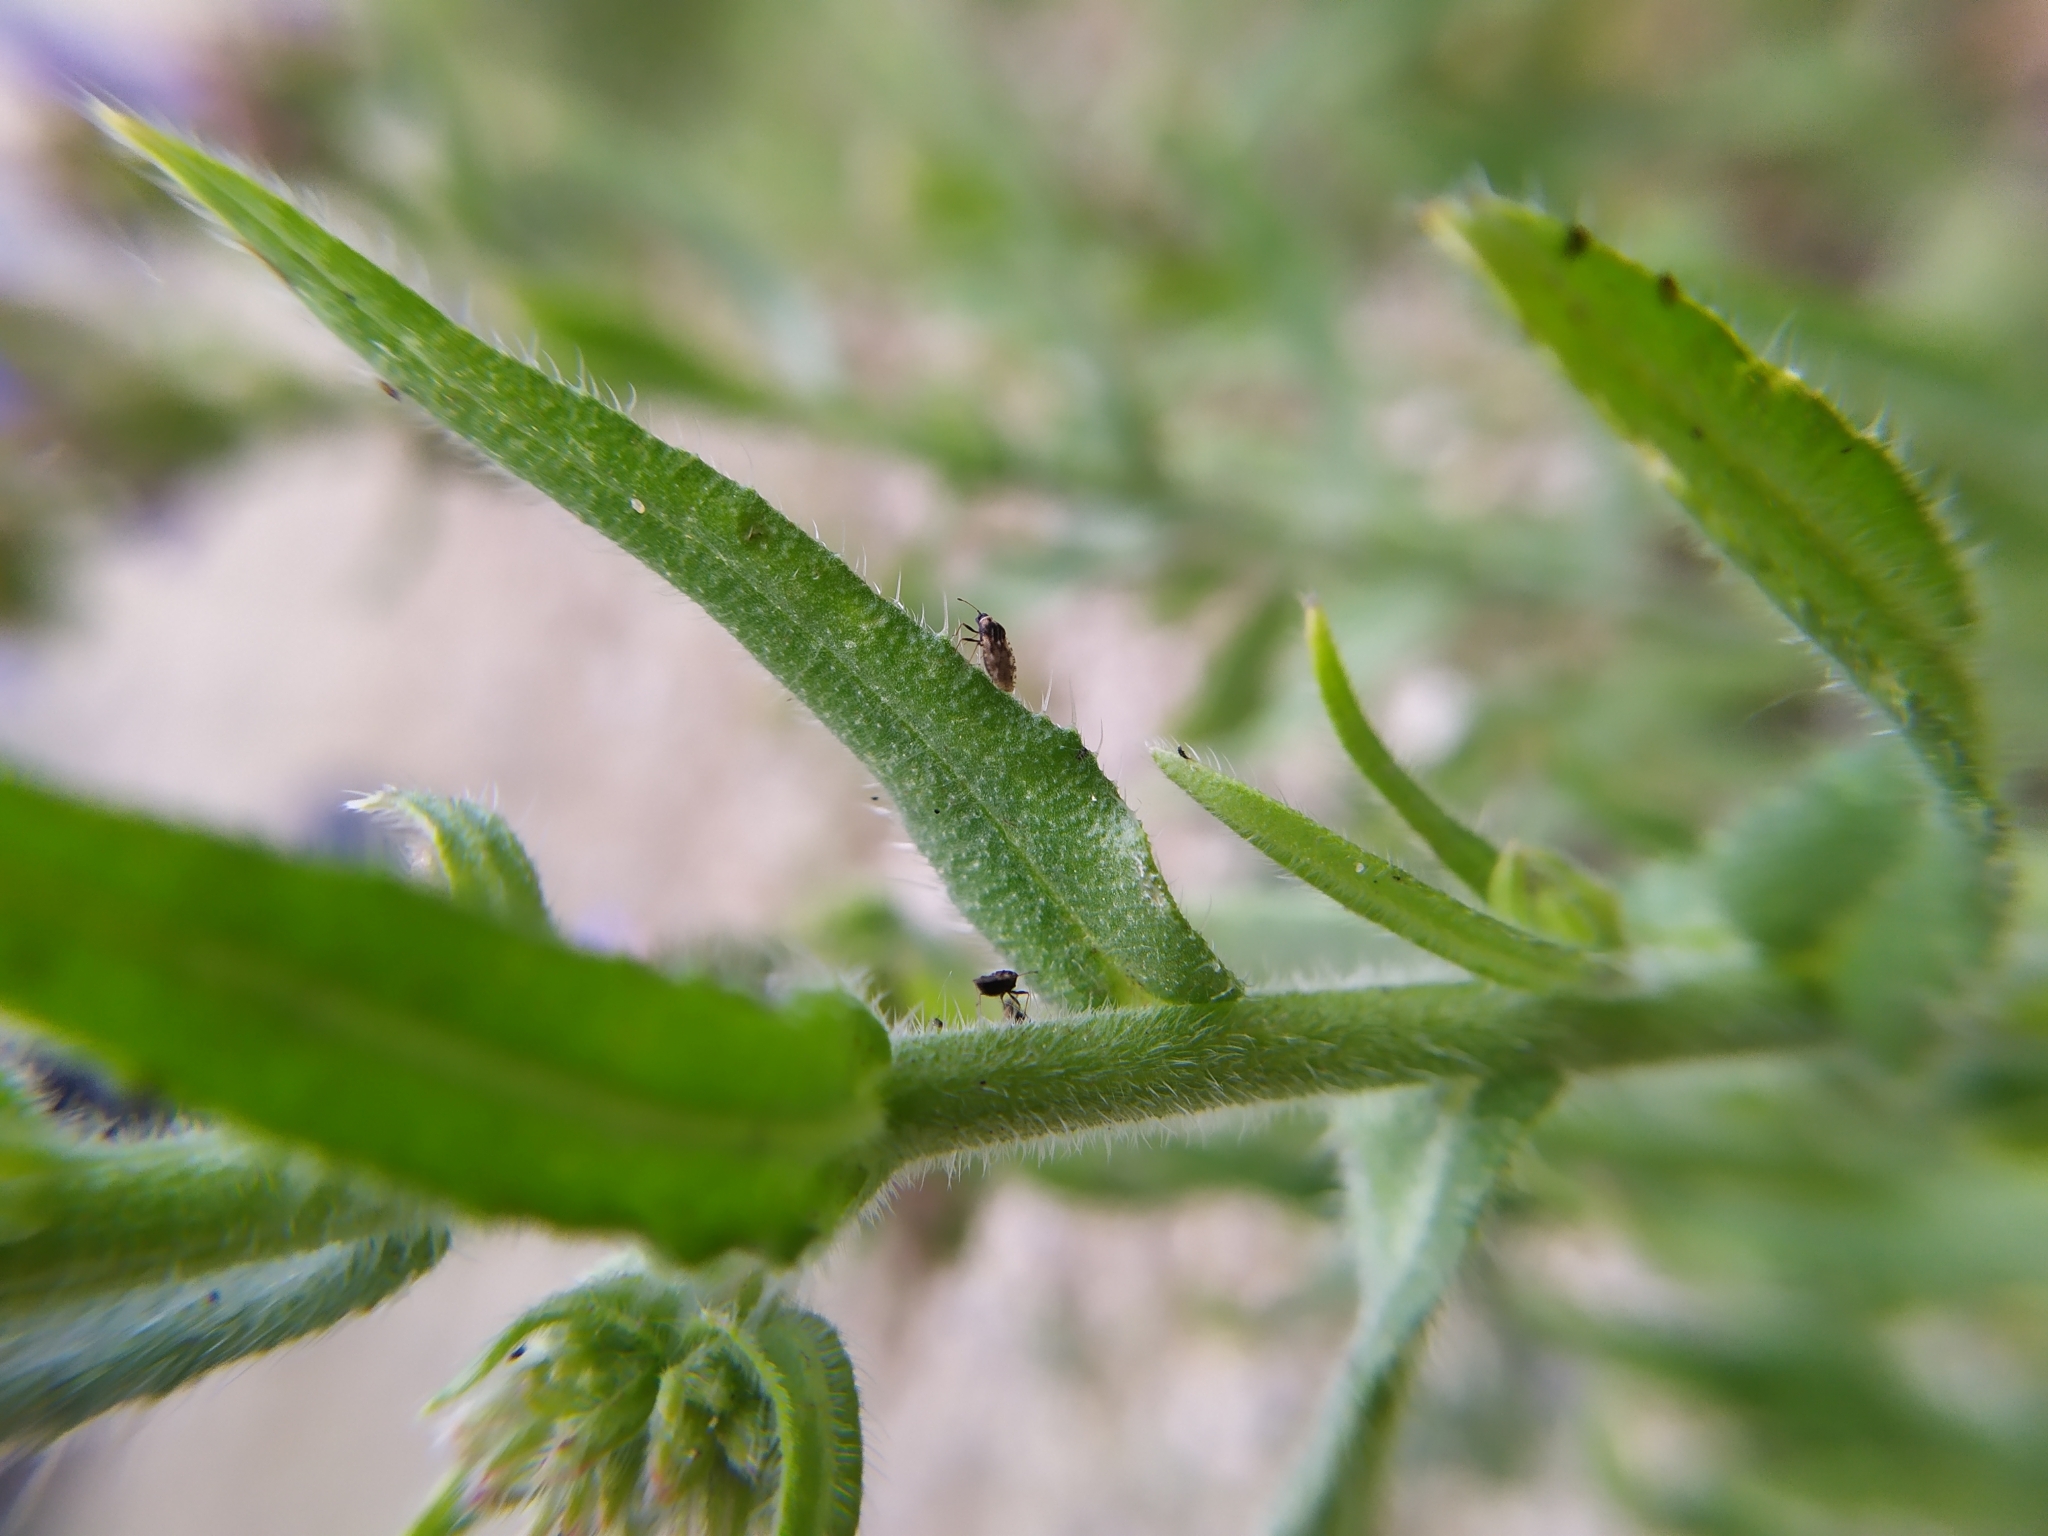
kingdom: Animalia
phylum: Arthropoda
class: Insecta
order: Hemiptera
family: Tingidae
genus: Dictyla
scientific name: Dictyla echii
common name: Lace bug
